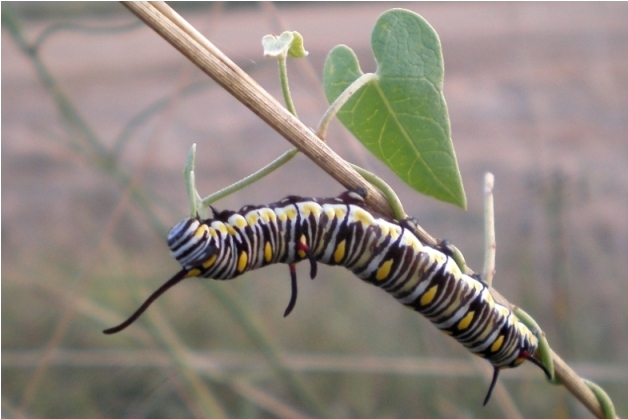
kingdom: Animalia
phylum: Arthropoda
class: Insecta
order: Lepidoptera
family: Nymphalidae
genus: Danaus
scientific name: Danaus chrysippus
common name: Plain tiger
